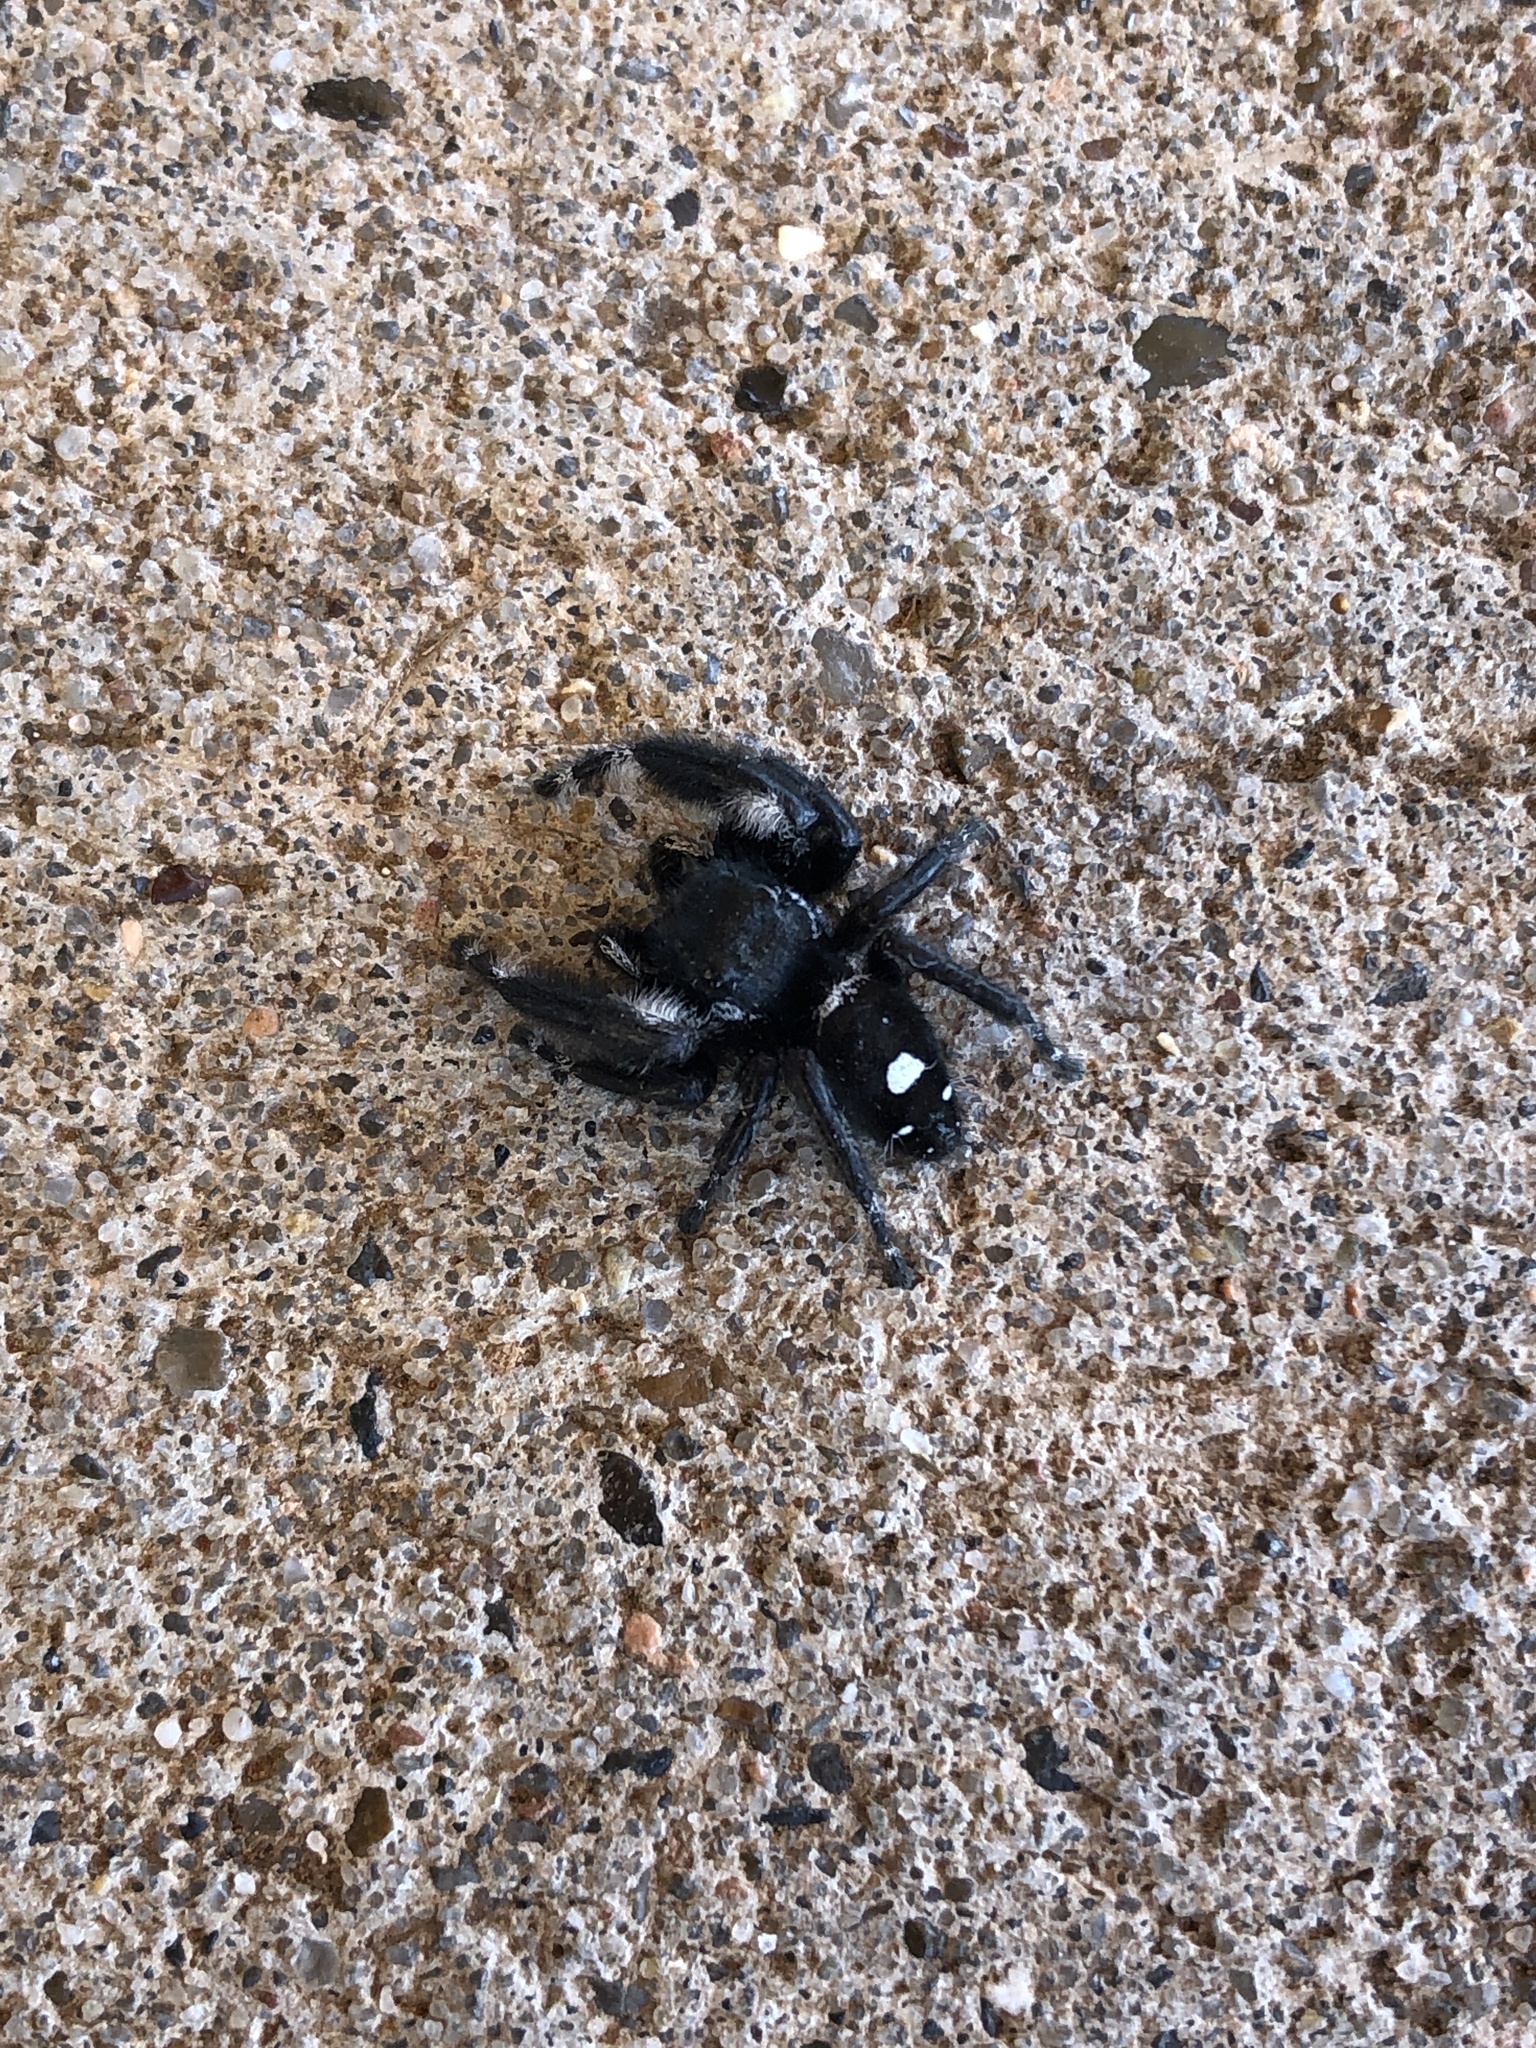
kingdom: Animalia
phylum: Arthropoda
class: Arachnida
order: Araneae
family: Salticidae
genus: Phidippus
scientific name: Phidippus audax
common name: Bold jumper
